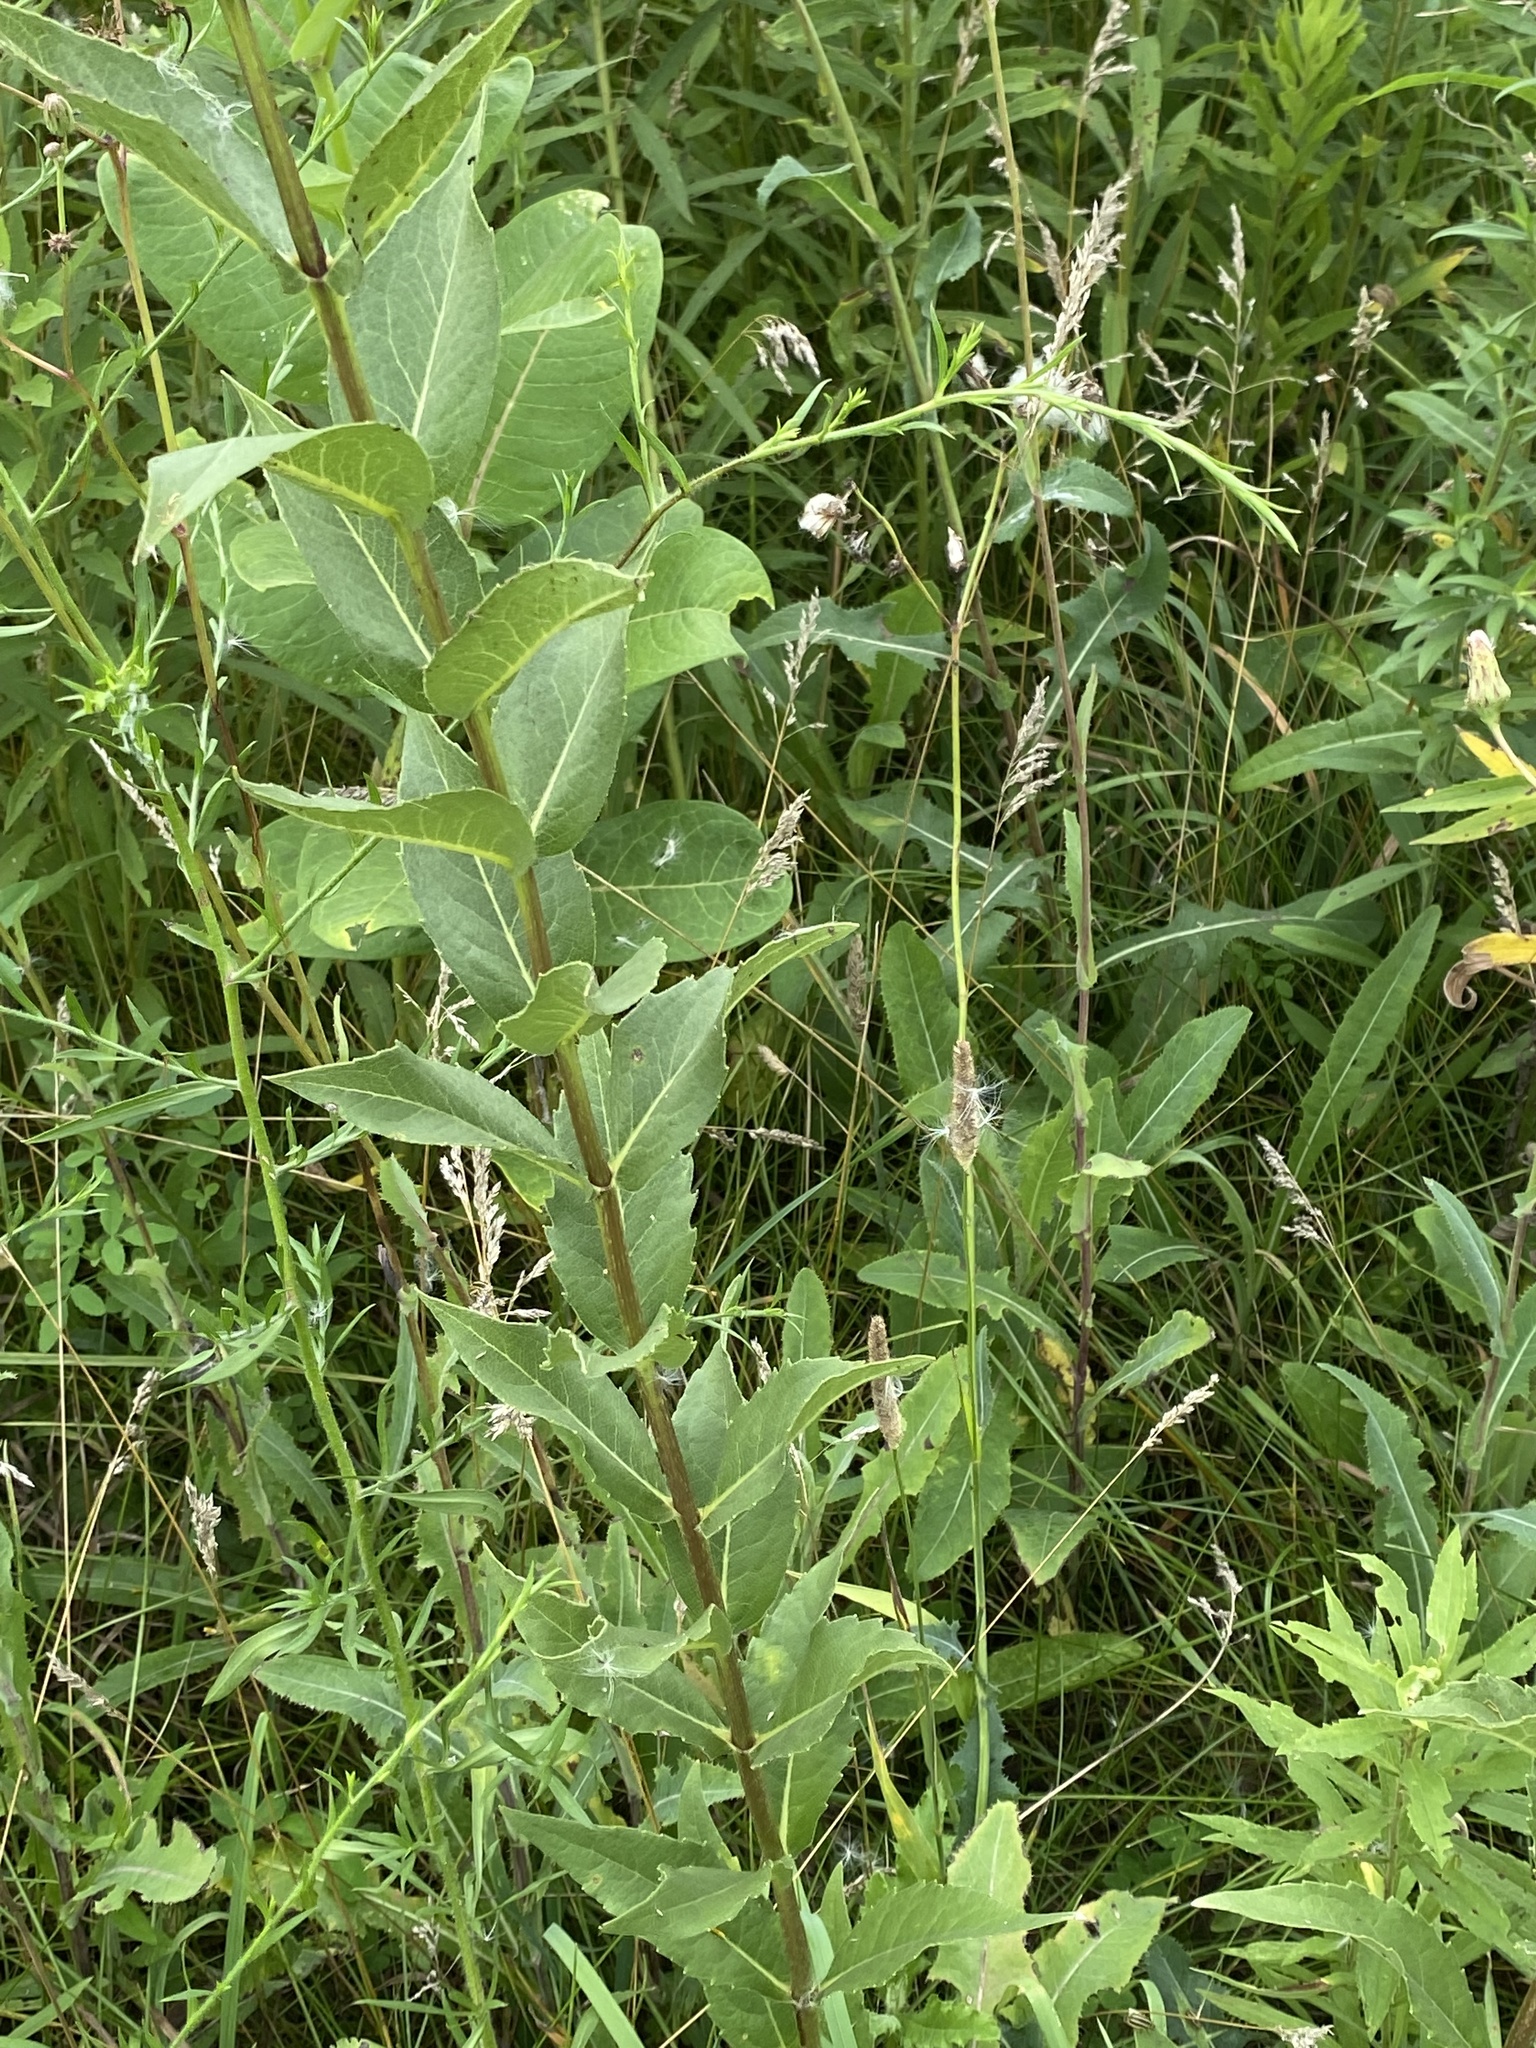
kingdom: Plantae
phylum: Tracheophyta
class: Magnoliopsida
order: Asterales
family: Asteraceae
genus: Silphium
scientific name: Silphium integrifolium
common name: Whole-leaf rosinweed
